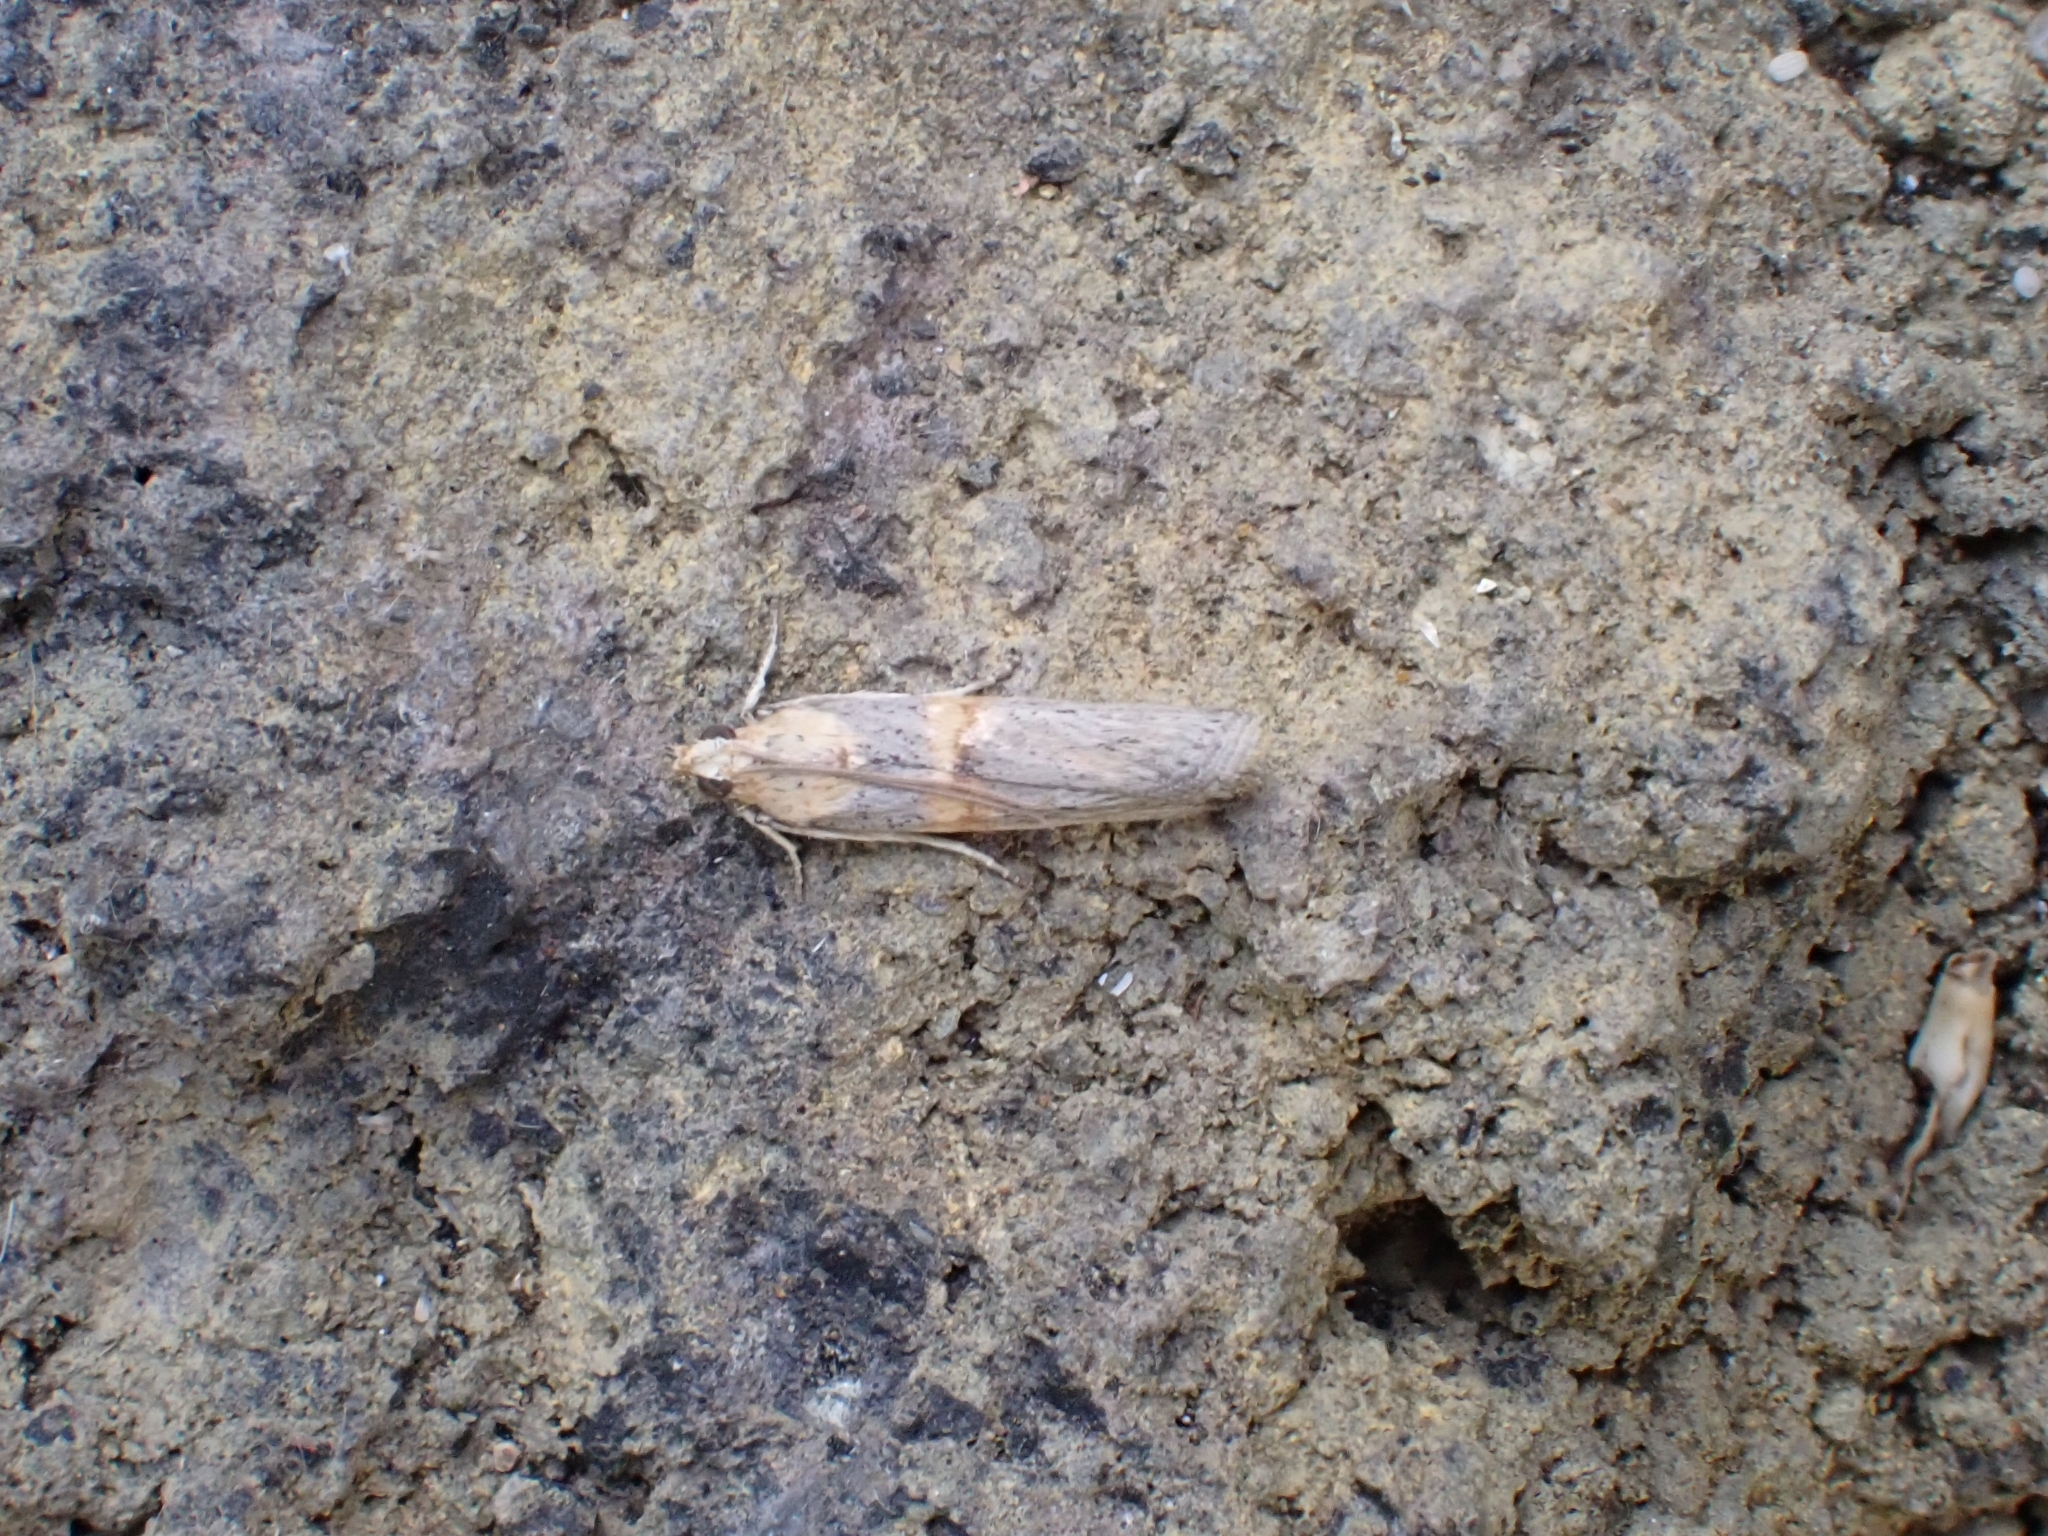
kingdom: Animalia
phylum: Arthropoda
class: Insecta
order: Lepidoptera
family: Pyralidae
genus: Oxybia
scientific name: Oxybia transversella
